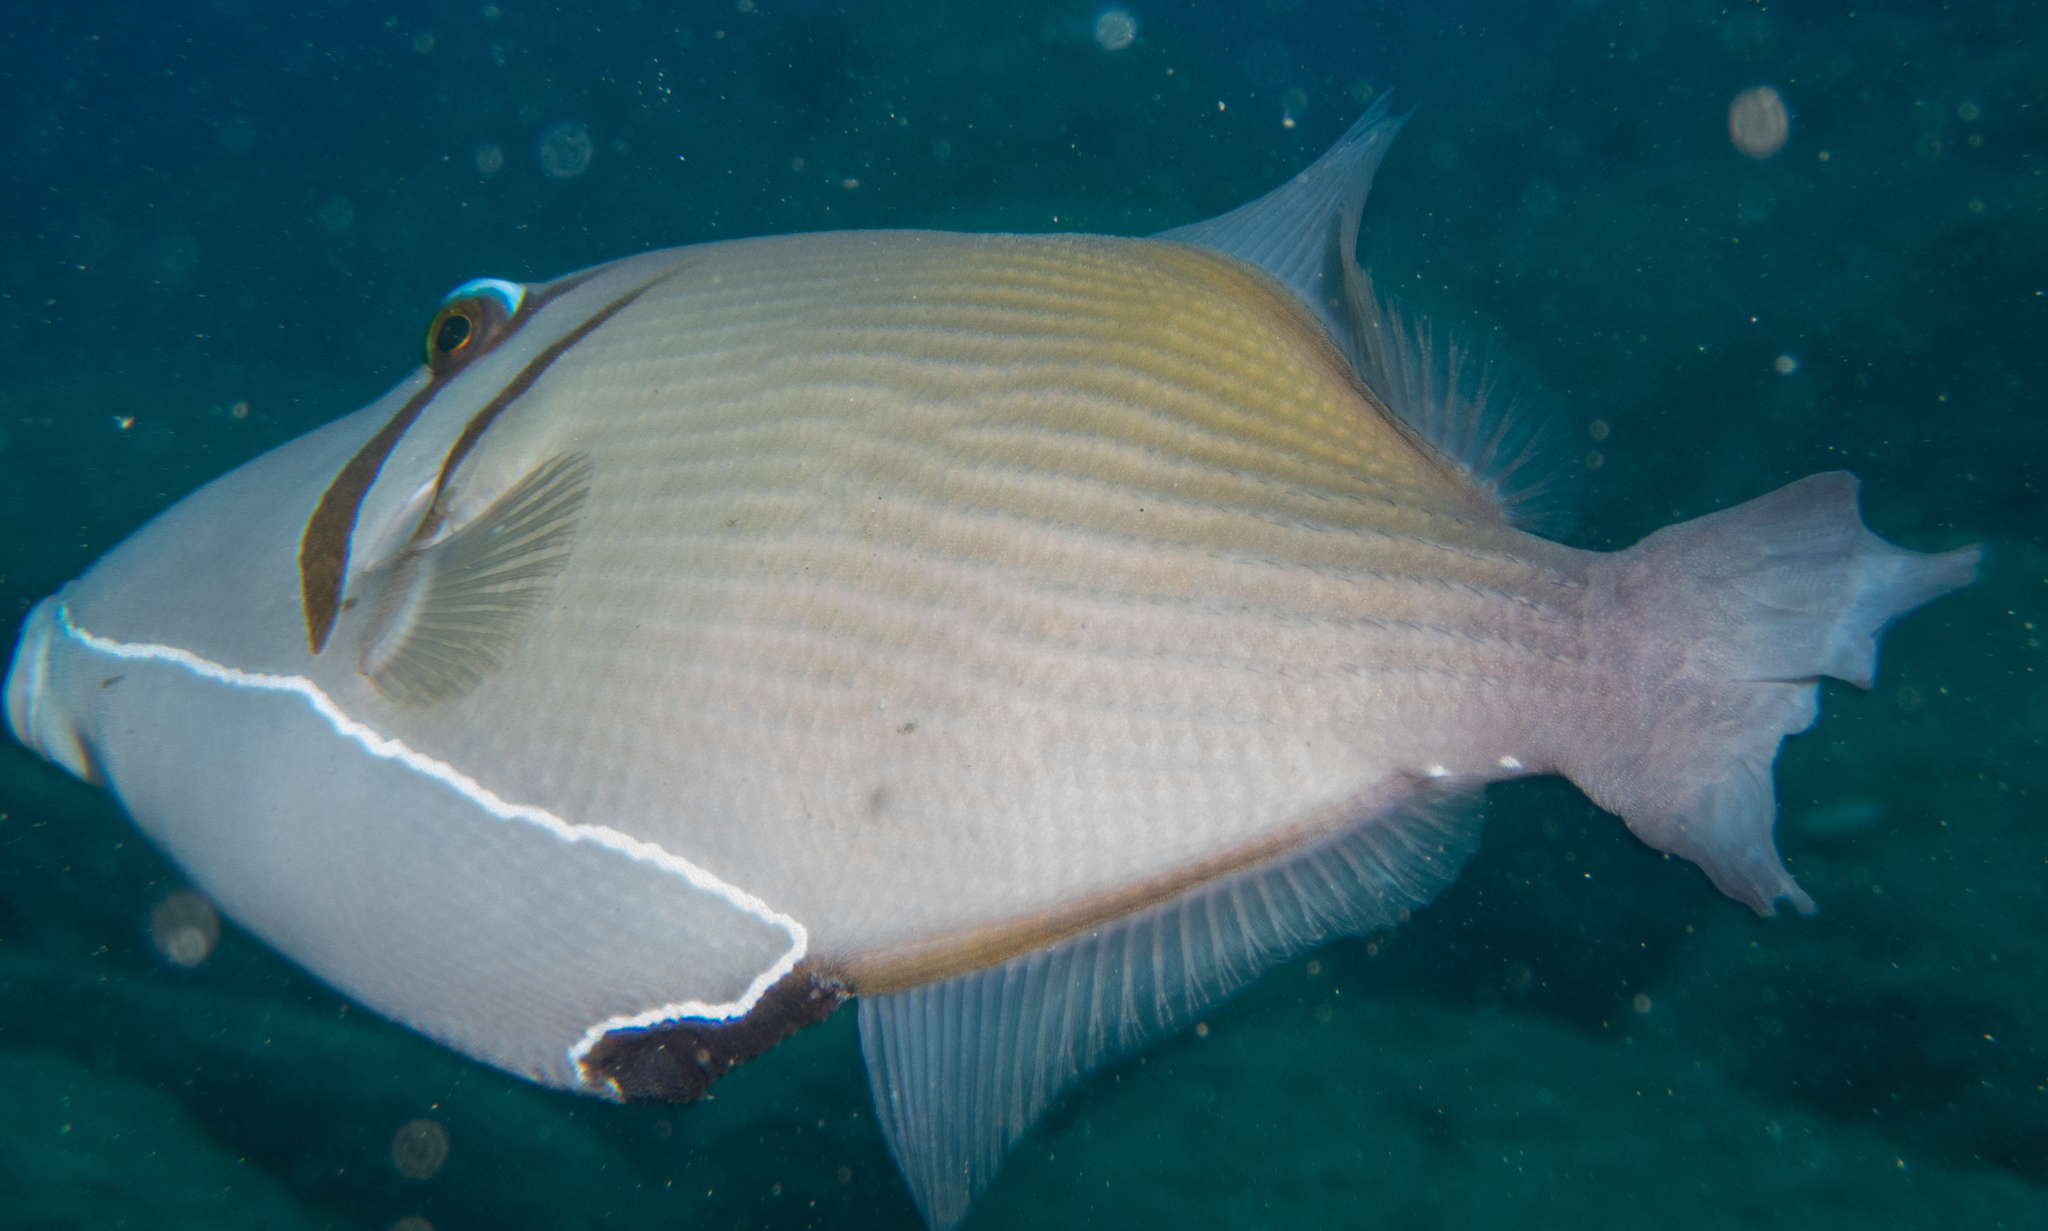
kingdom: Animalia
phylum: Chordata
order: Tetraodontiformes
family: Balistidae
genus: Sufflamen
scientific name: Sufflamen bursa
